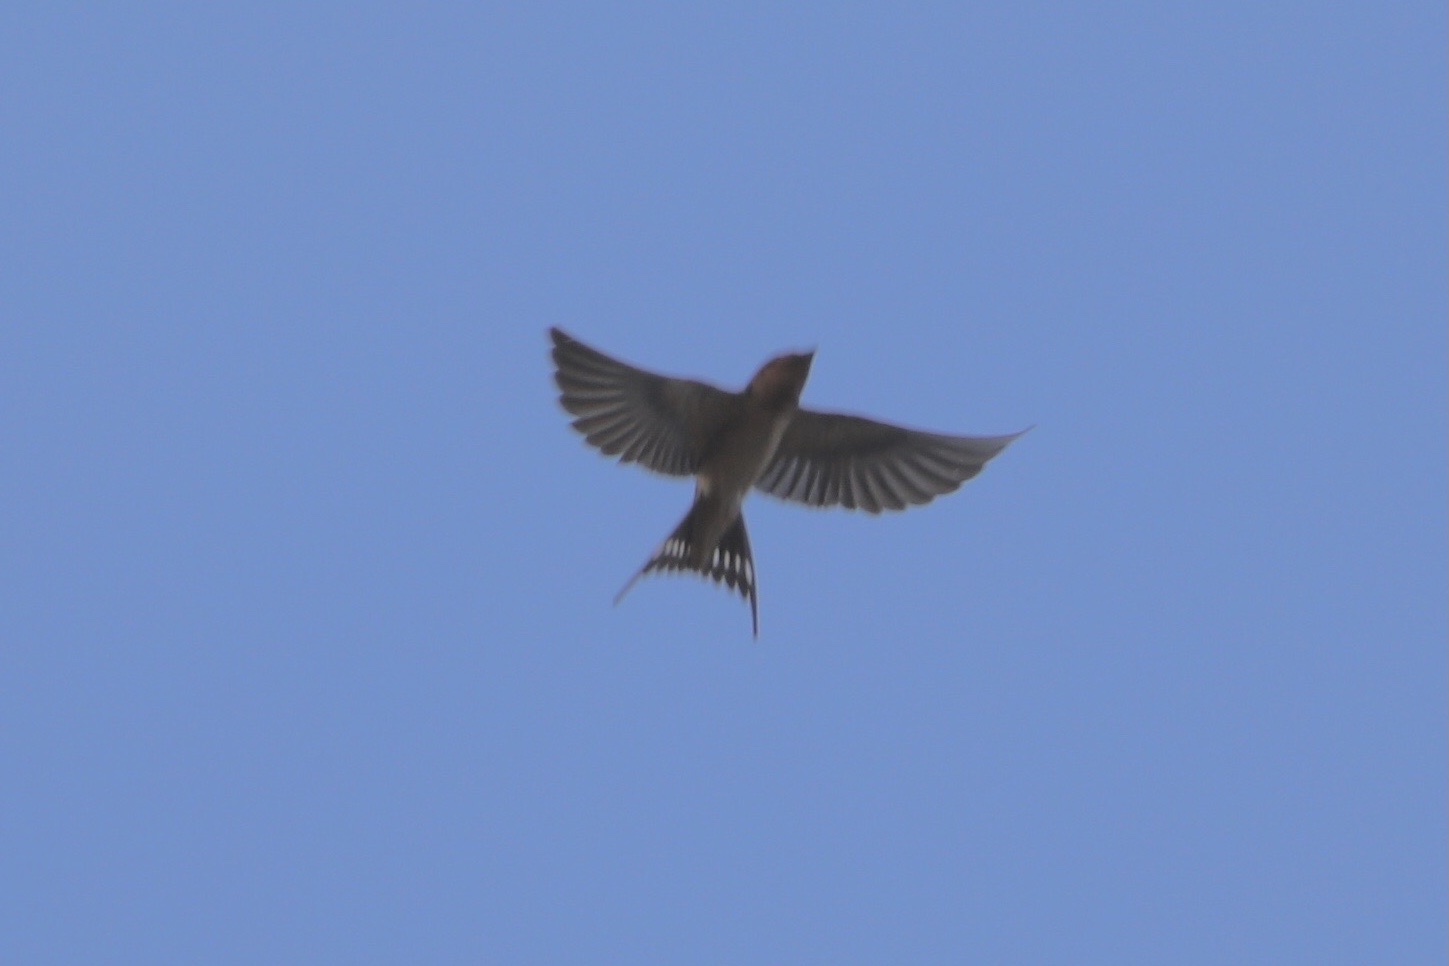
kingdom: Animalia
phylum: Chordata
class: Aves
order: Passeriformes
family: Hirundinidae
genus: Hirundo
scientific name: Hirundo rustica
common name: Barn swallow
